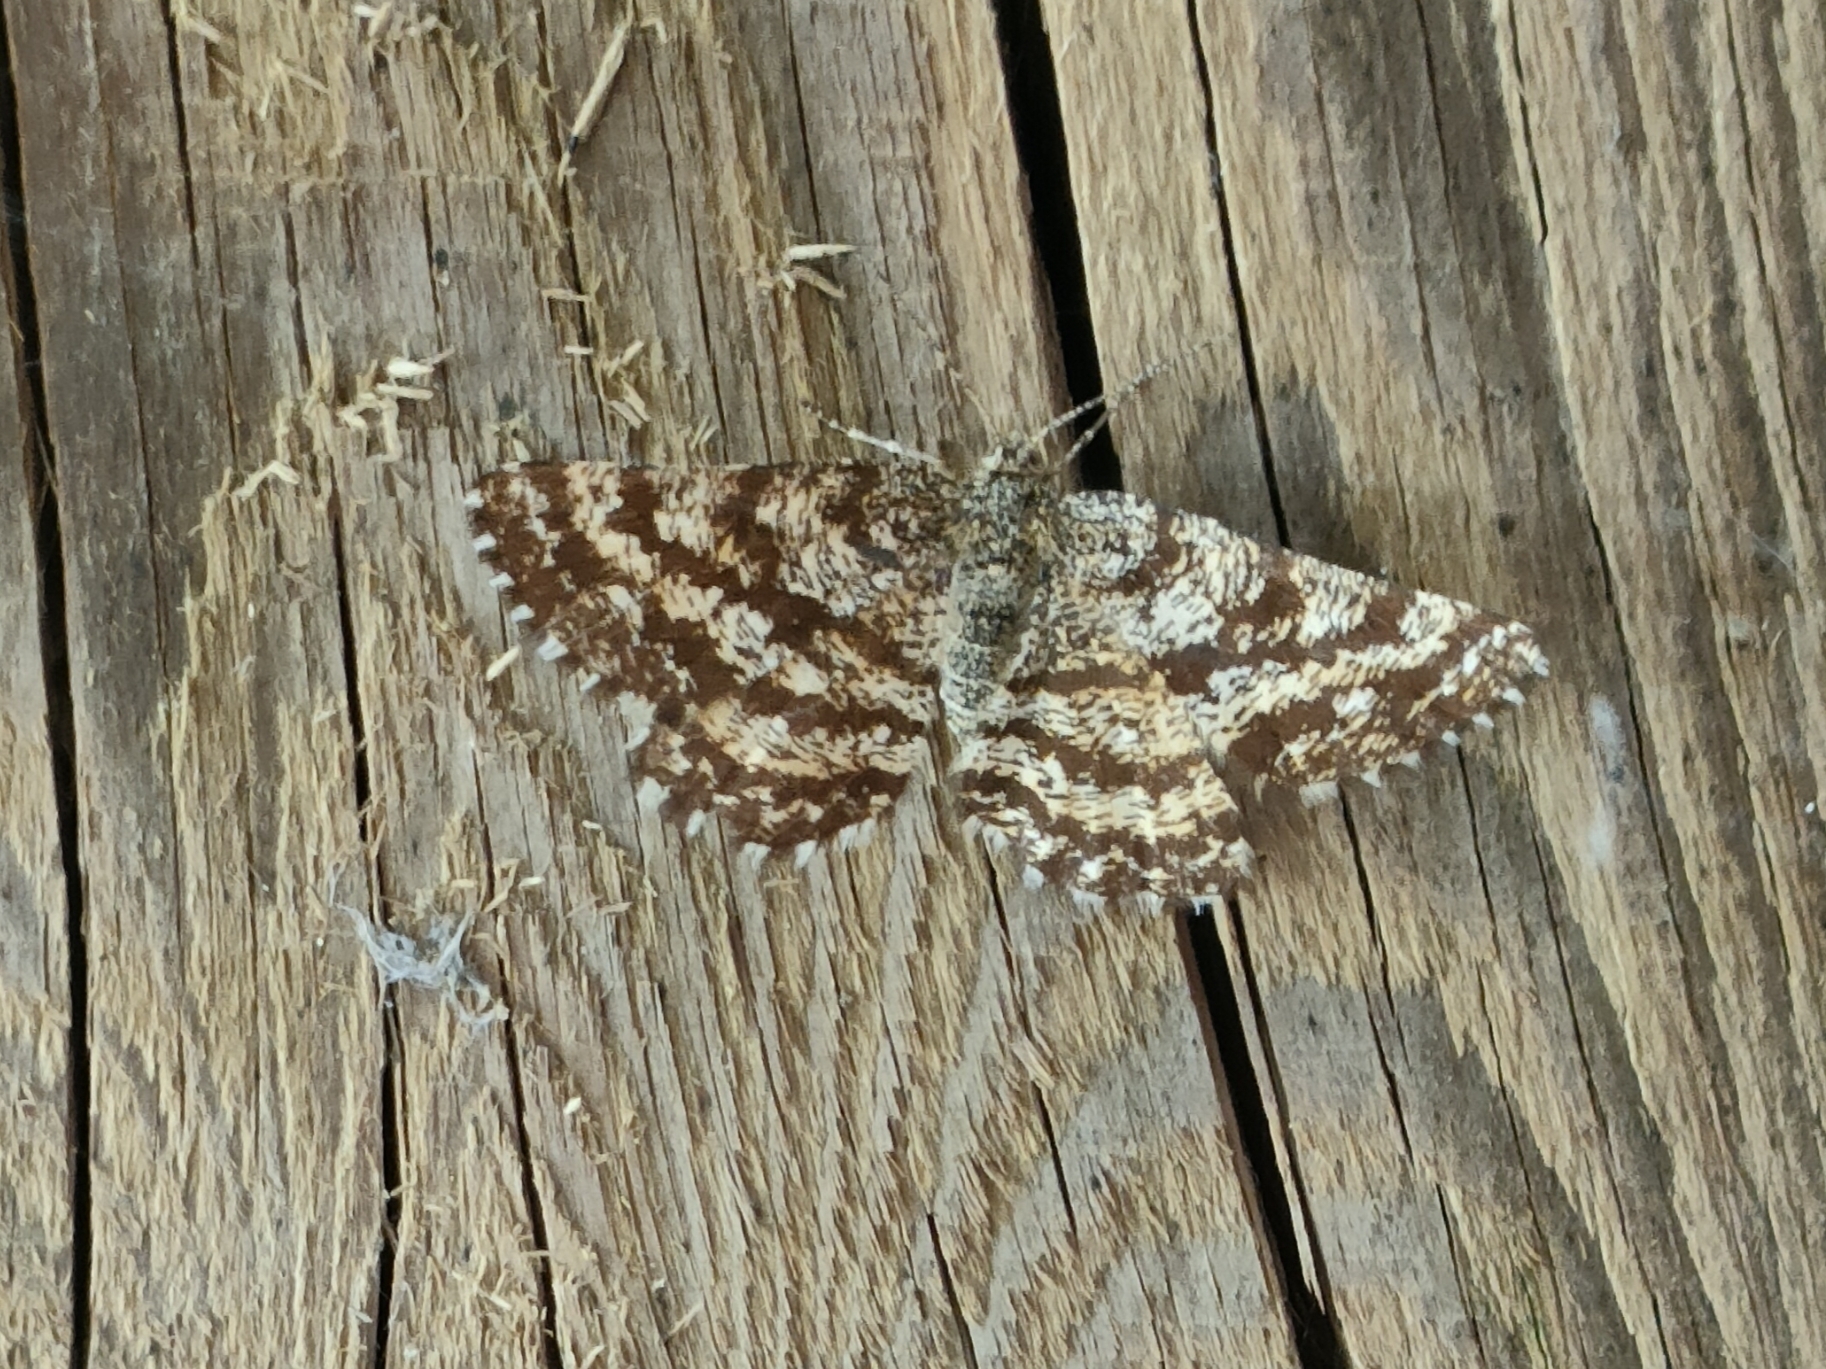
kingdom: Animalia
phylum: Arthropoda
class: Insecta
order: Lepidoptera
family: Geometridae
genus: Ematurga
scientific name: Ematurga atomaria
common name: Common heath
